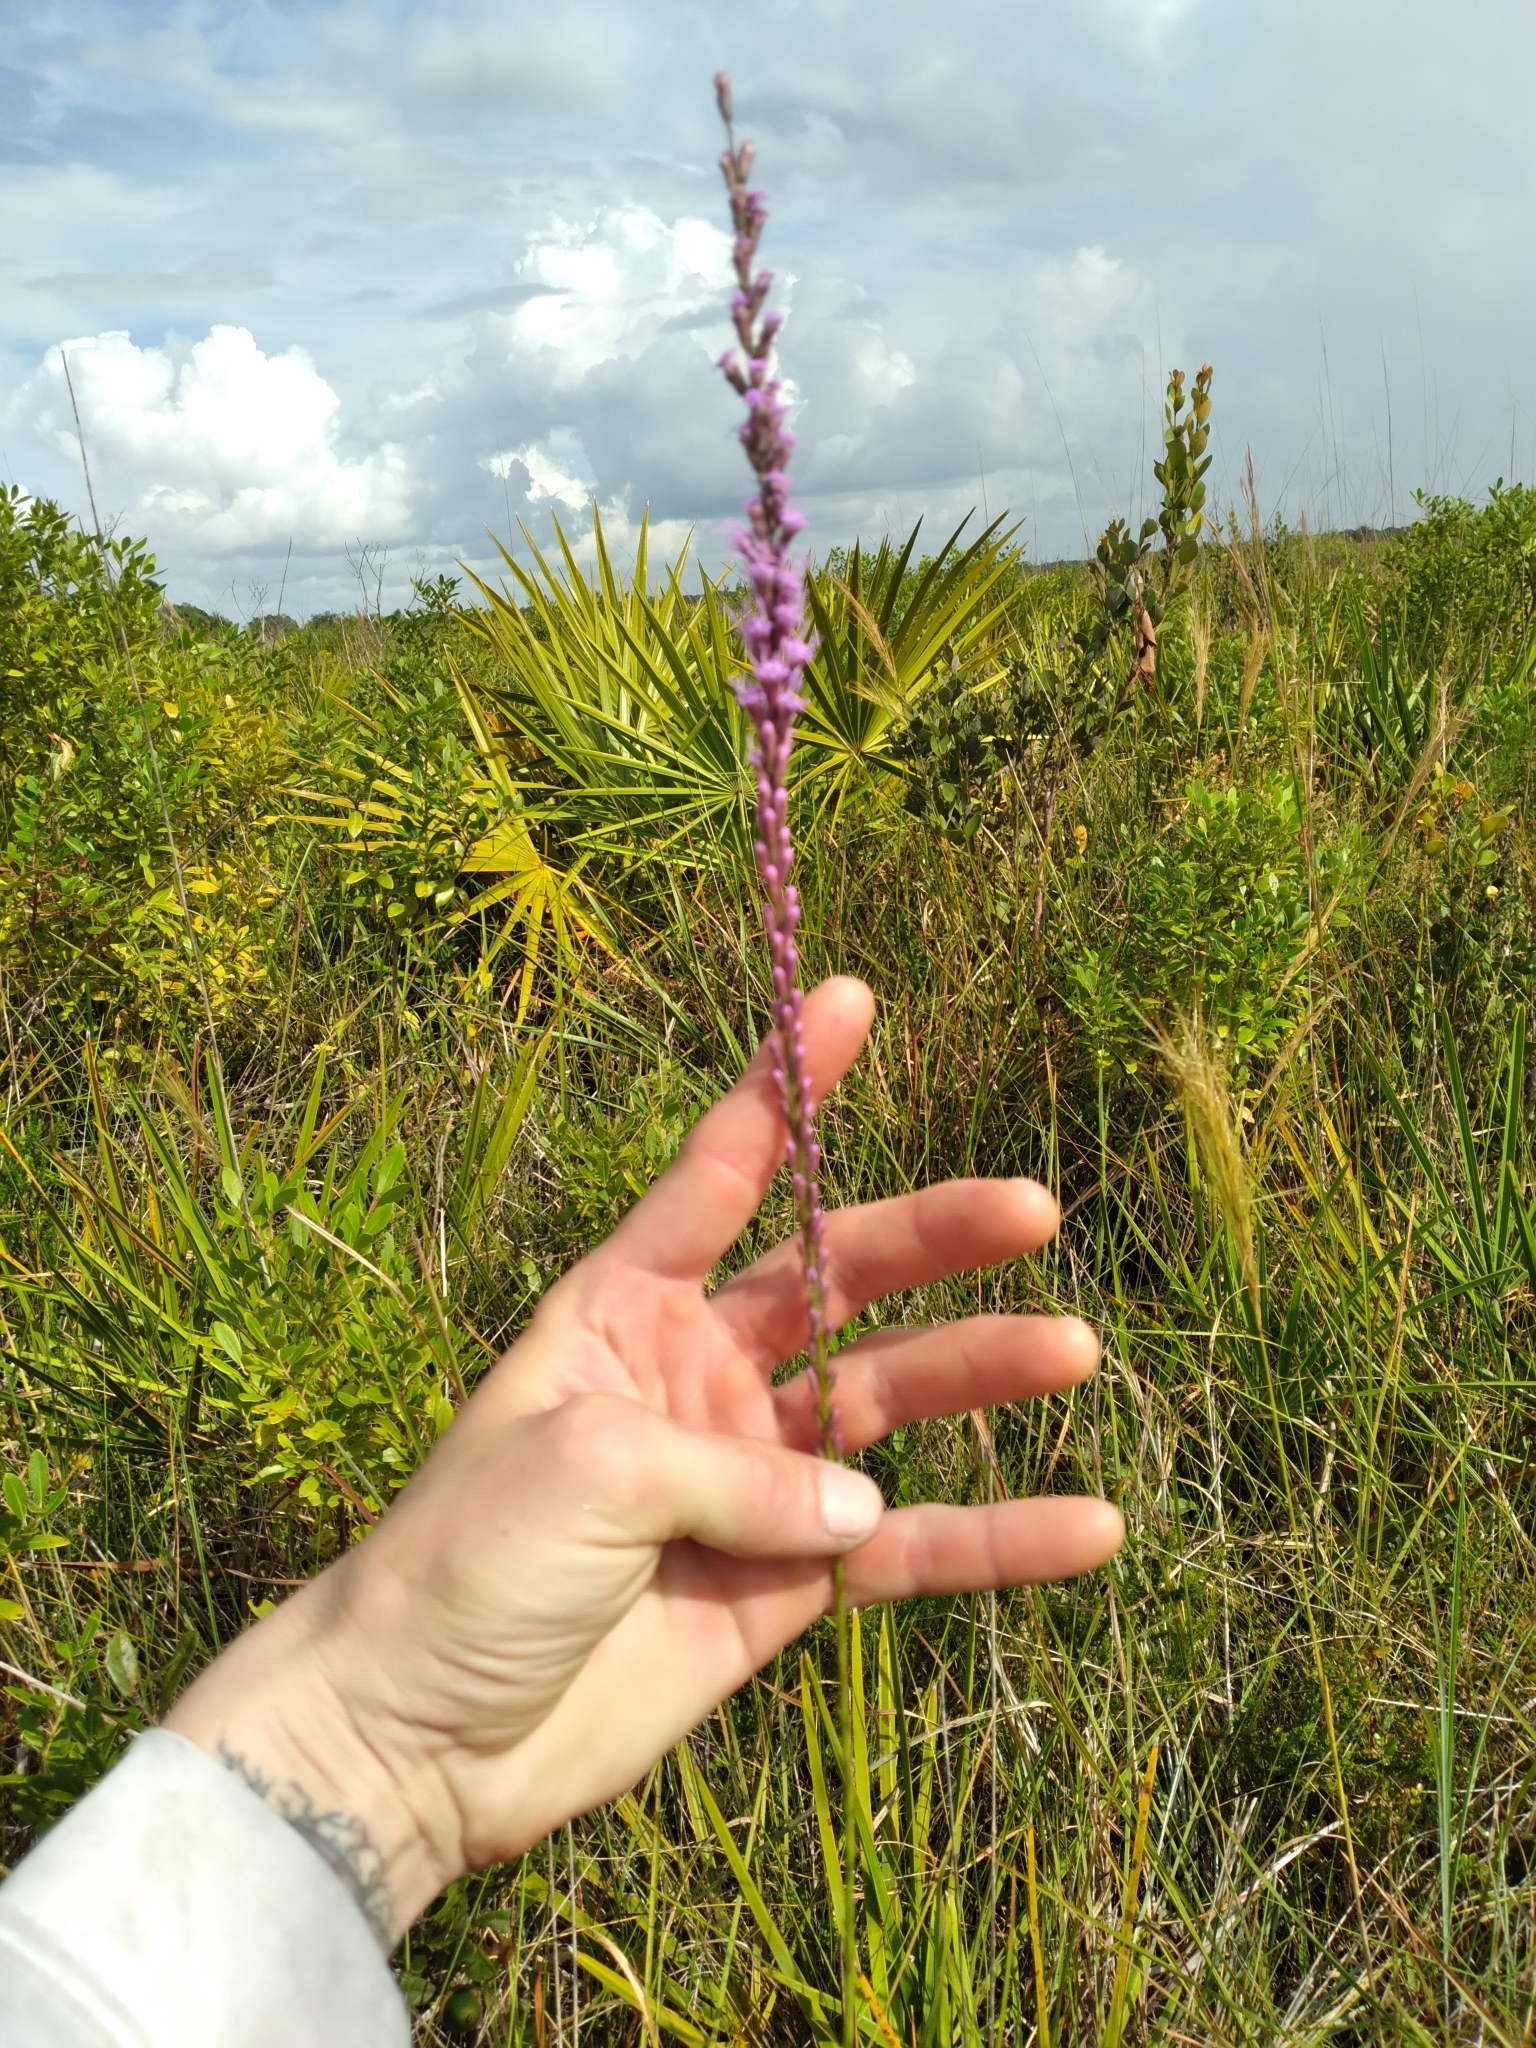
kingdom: Plantae
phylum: Tracheophyta
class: Magnoliopsida
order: Asterales
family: Asteraceae
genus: Liatris
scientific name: Liatris quadriflora
